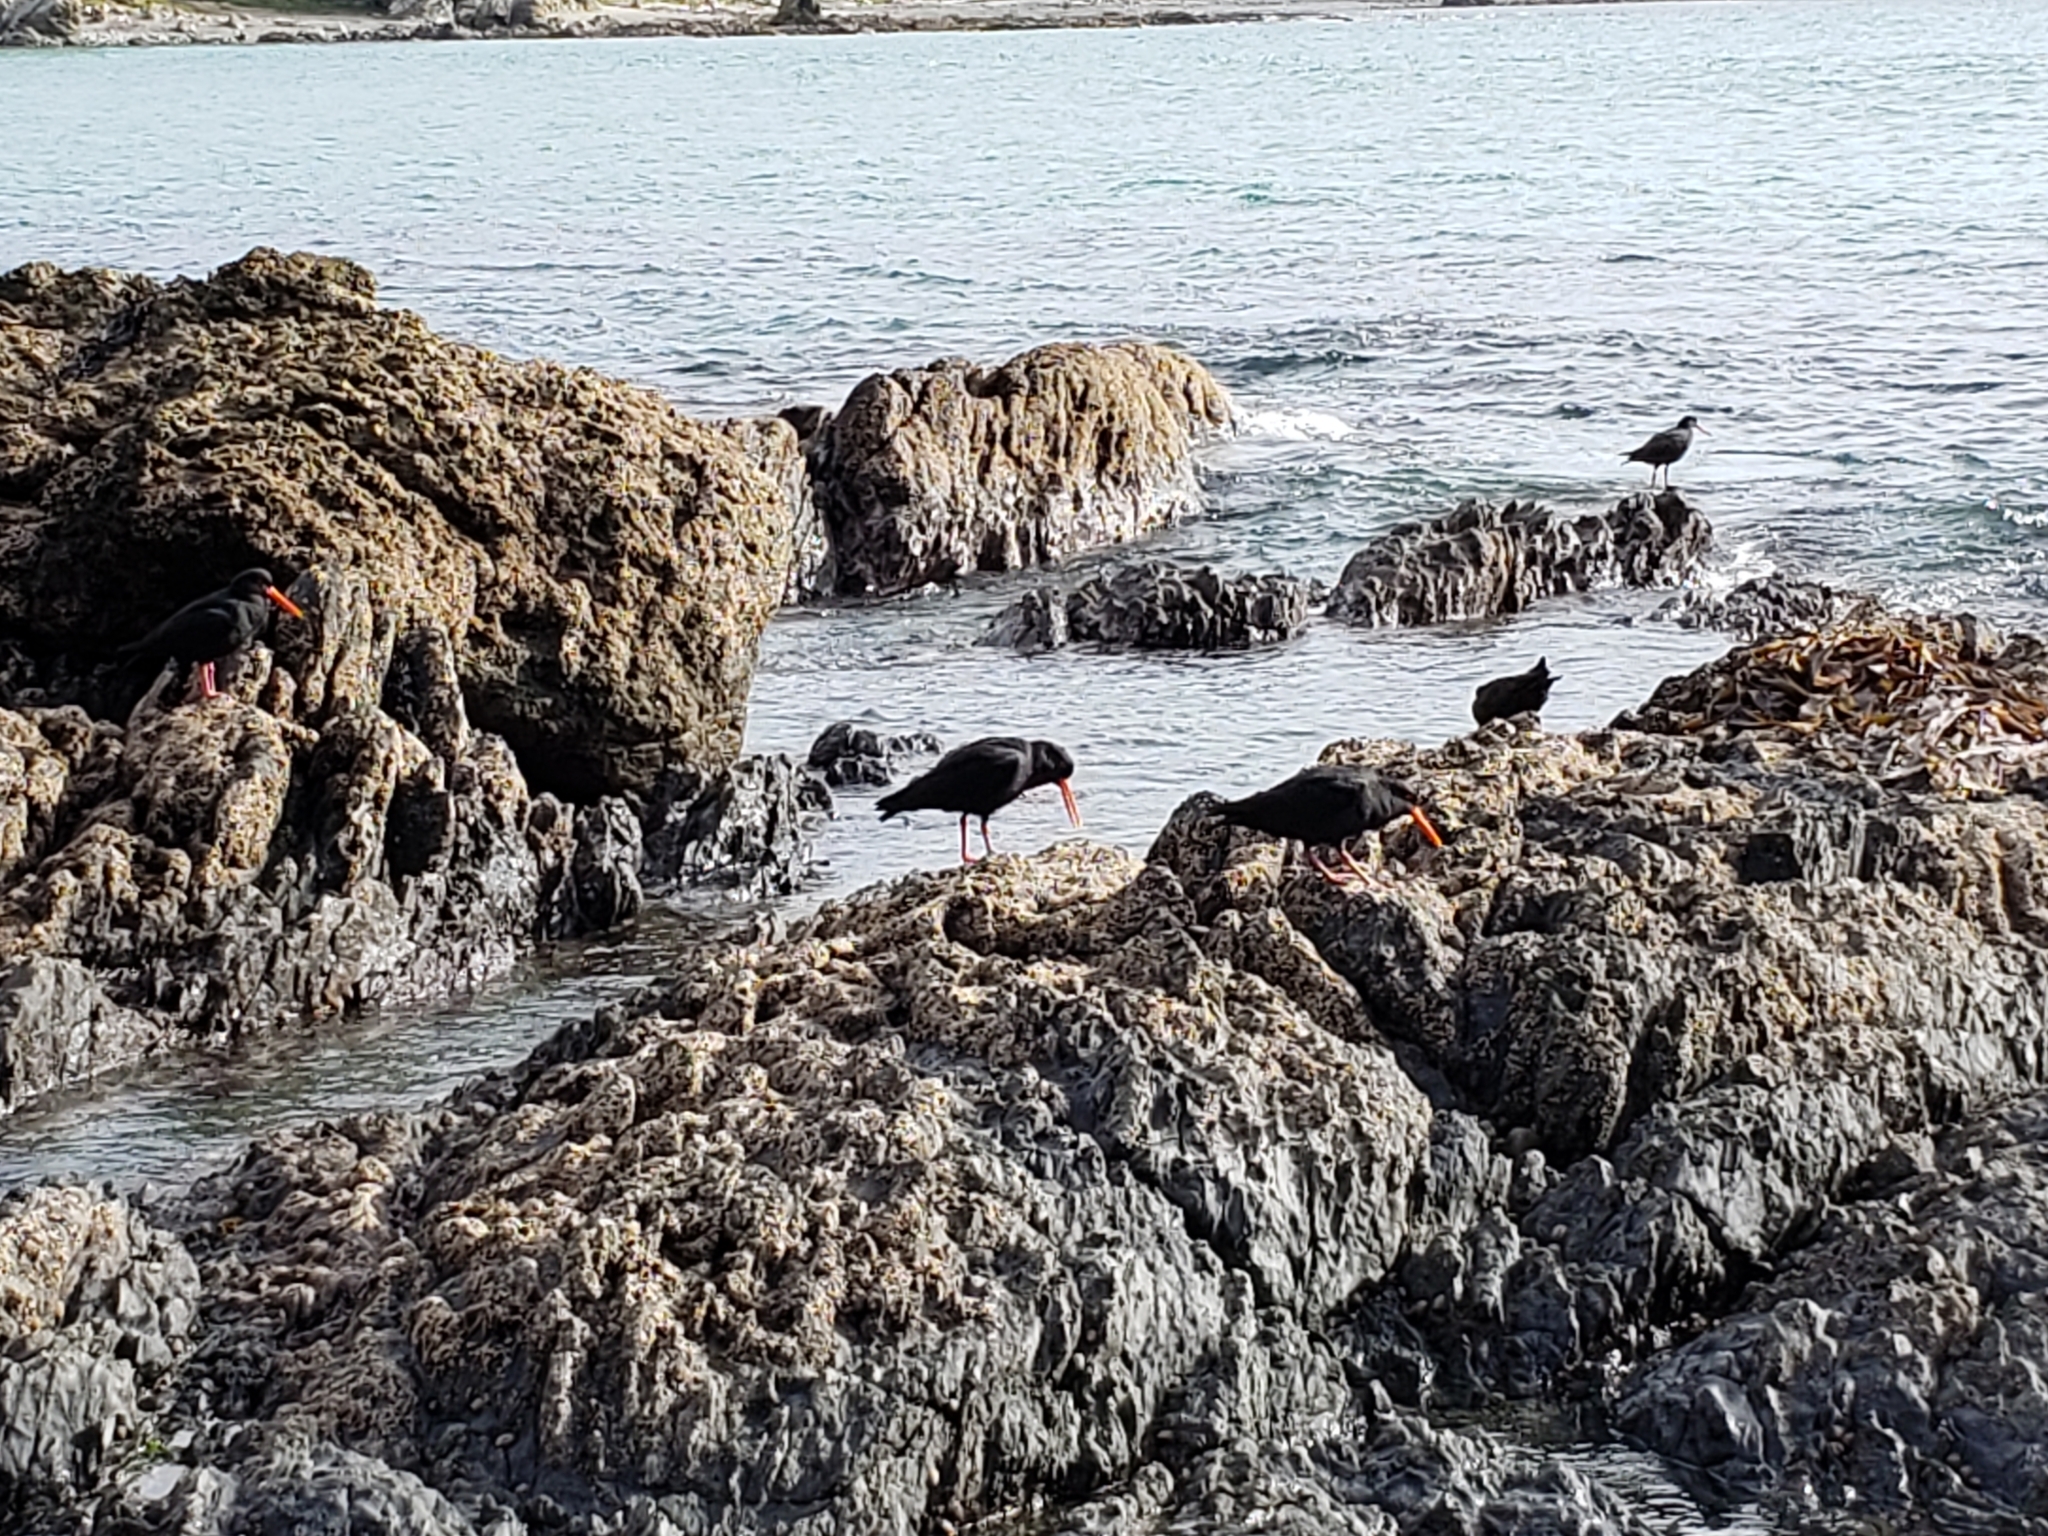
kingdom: Animalia
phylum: Chordata
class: Aves
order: Charadriiformes
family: Haematopodidae
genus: Haematopus
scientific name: Haematopus unicolor
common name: Variable oystercatcher
